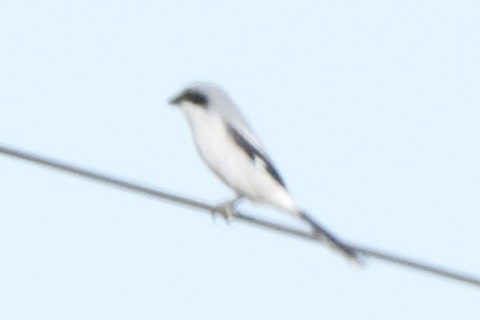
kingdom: Animalia
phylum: Chordata
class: Aves
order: Passeriformes
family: Laniidae
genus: Lanius
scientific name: Lanius ludovicianus
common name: Loggerhead shrike
